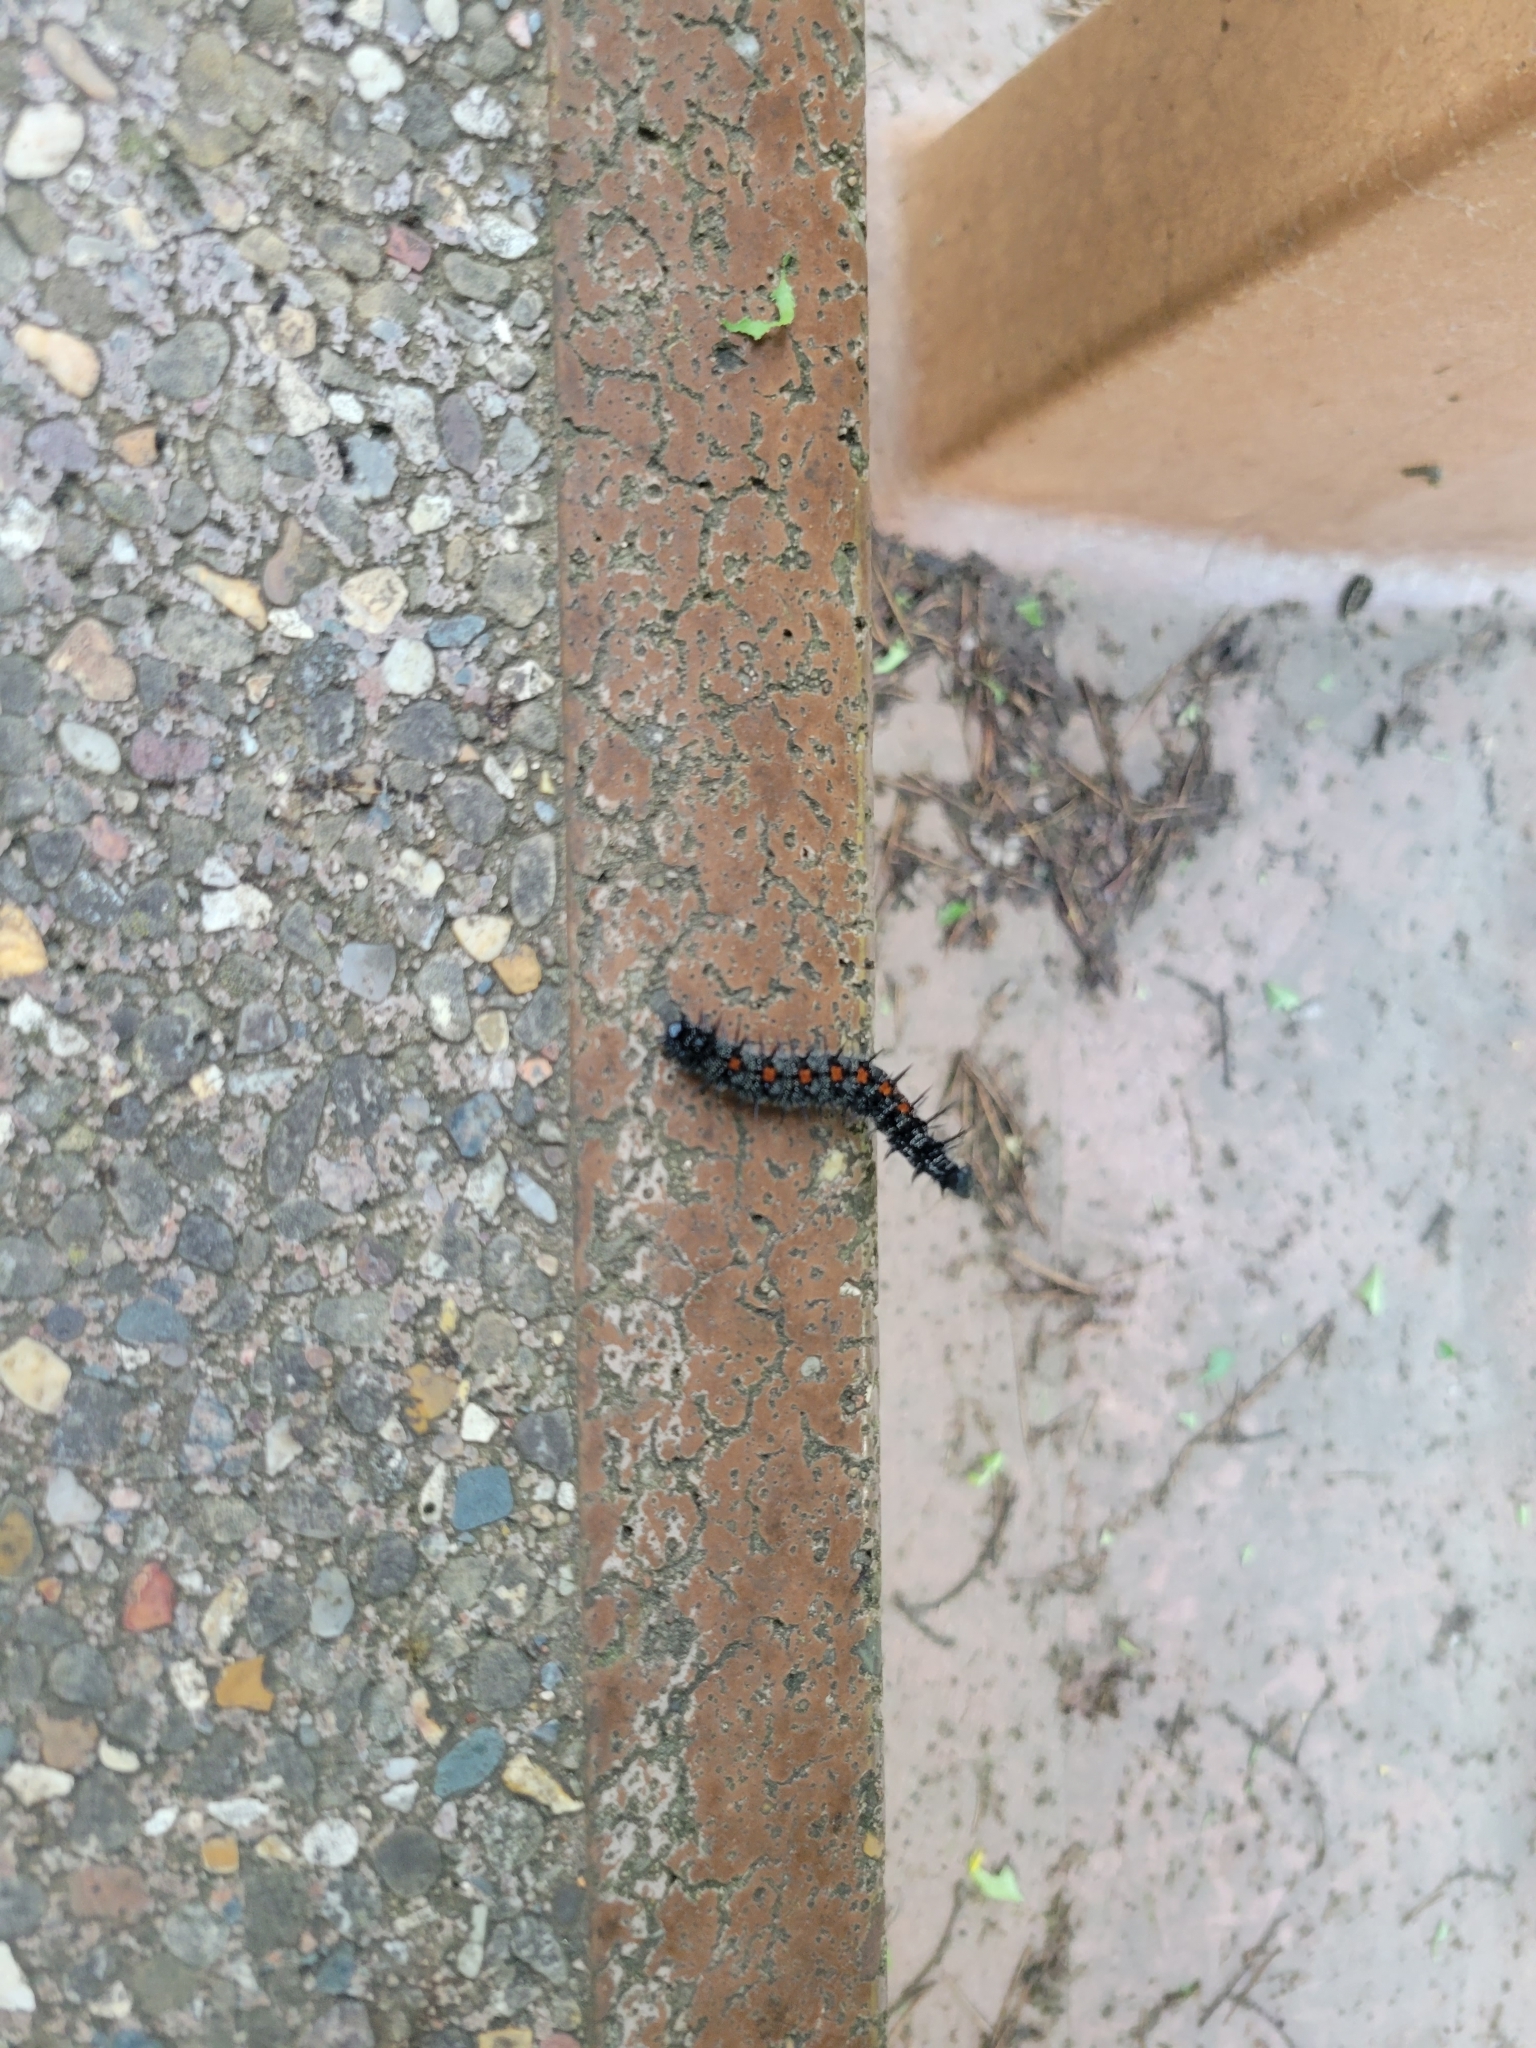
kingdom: Animalia
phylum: Arthropoda
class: Insecta
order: Lepidoptera
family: Nymphalidae
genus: Nymphalis
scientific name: Nymphalis antiopa
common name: Camberwell beauty
